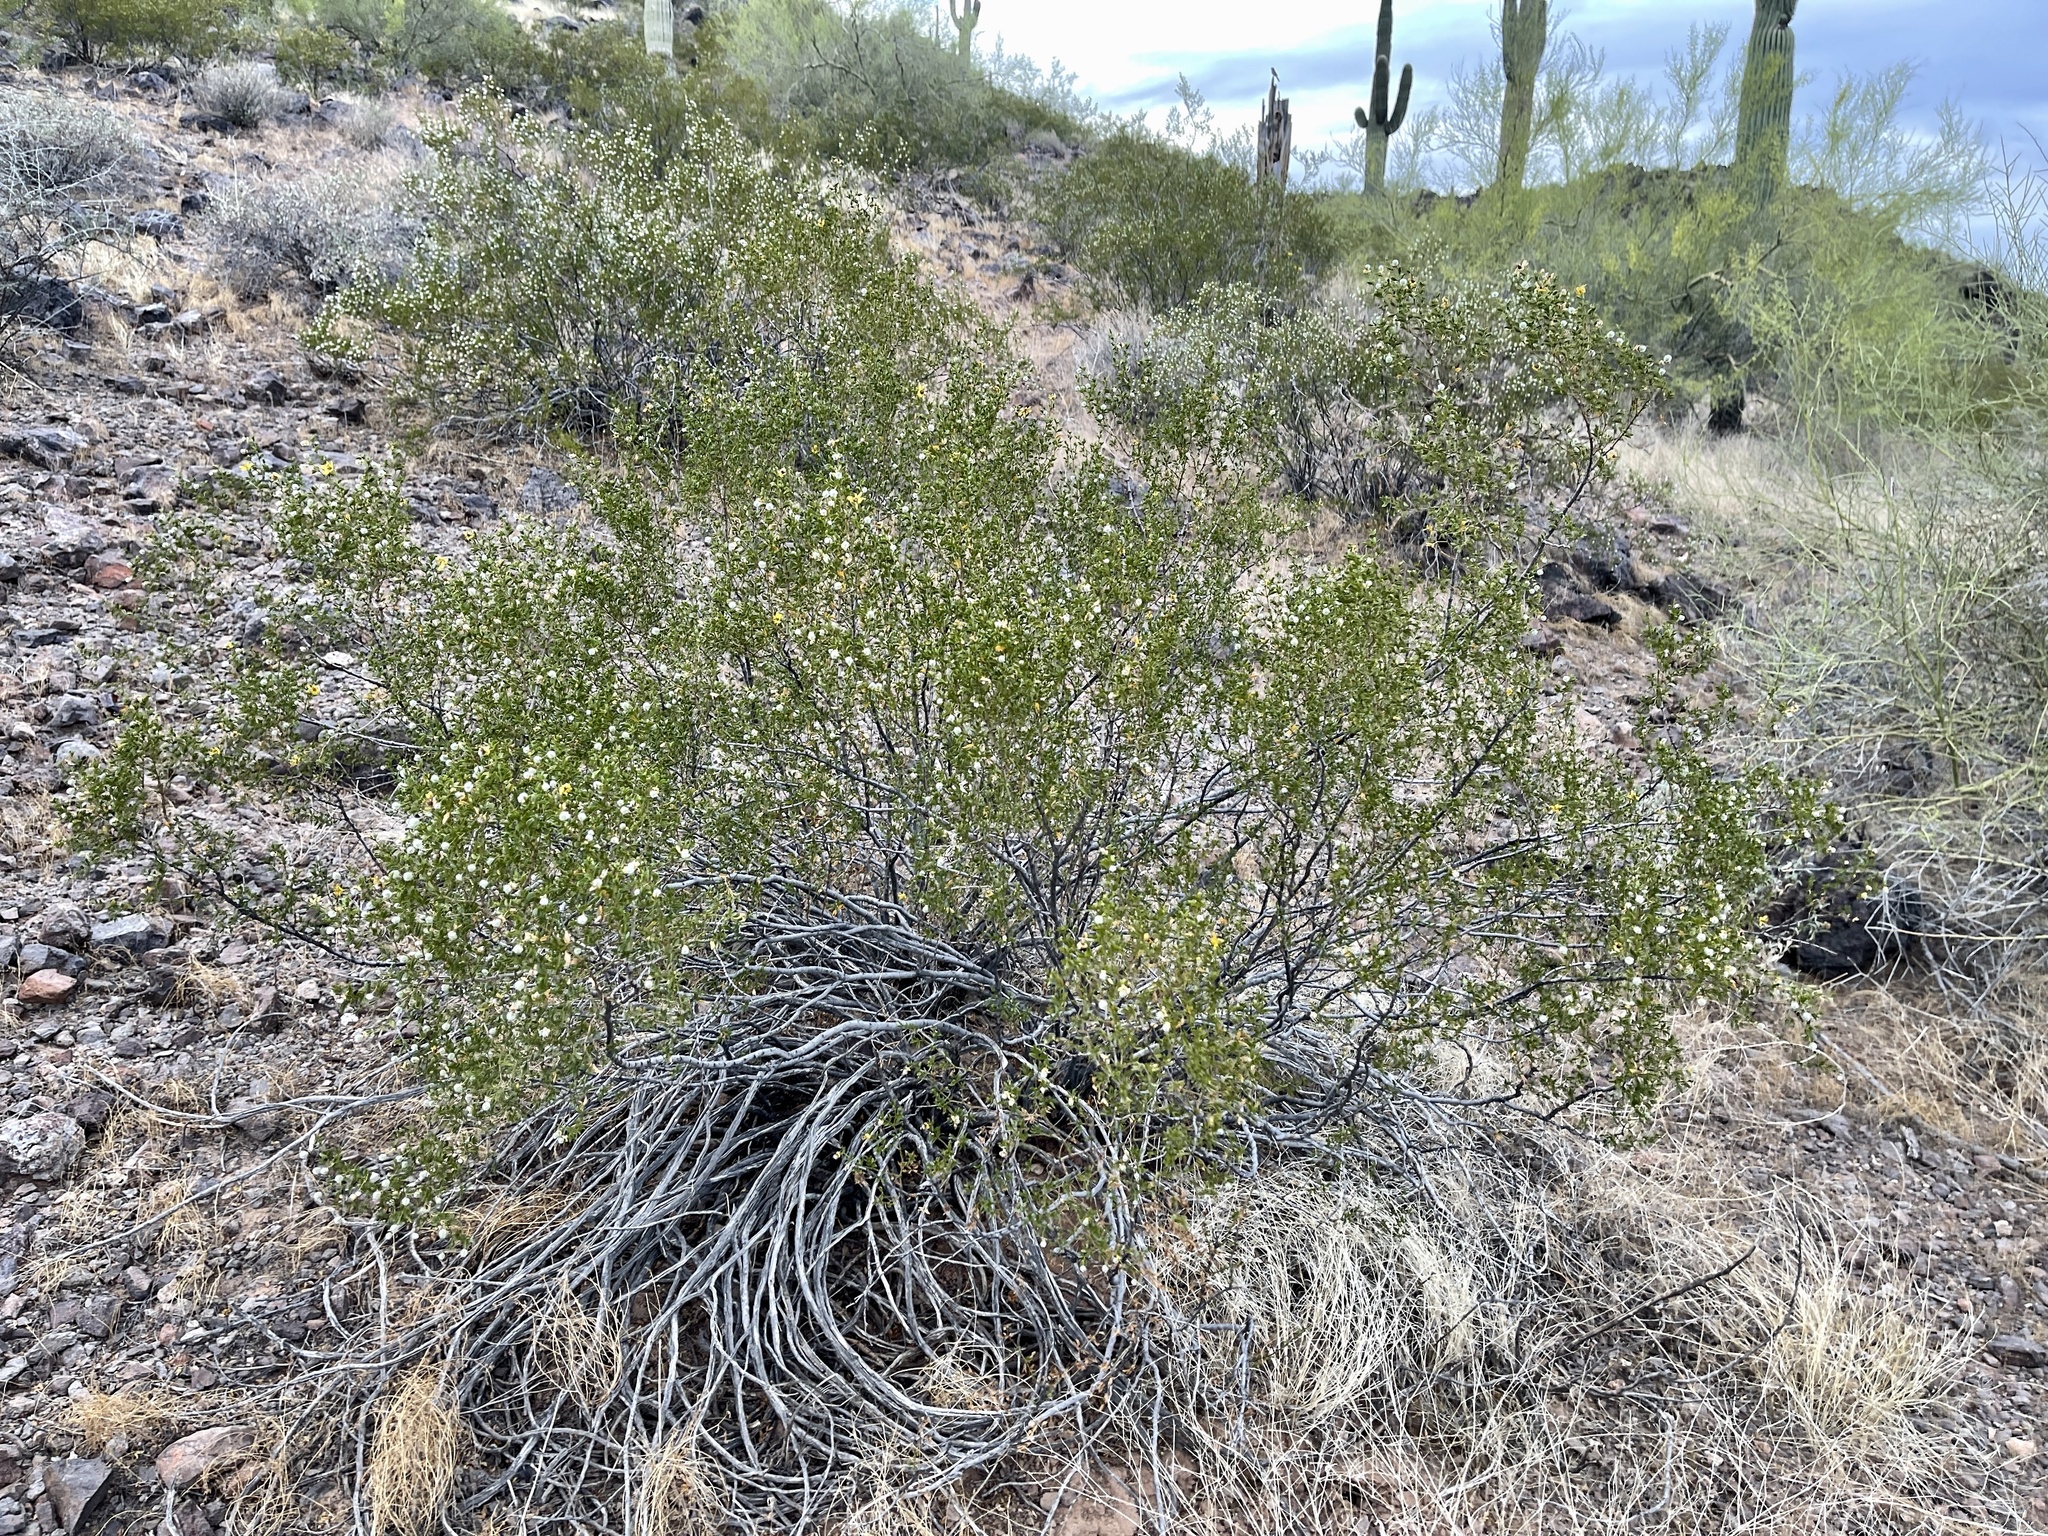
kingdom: Plantae
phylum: Tracheophyta
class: Magnoliopsida
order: Zygophyllales
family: Zygophyllaceae
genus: Larrea
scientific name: Larrea tridentata
